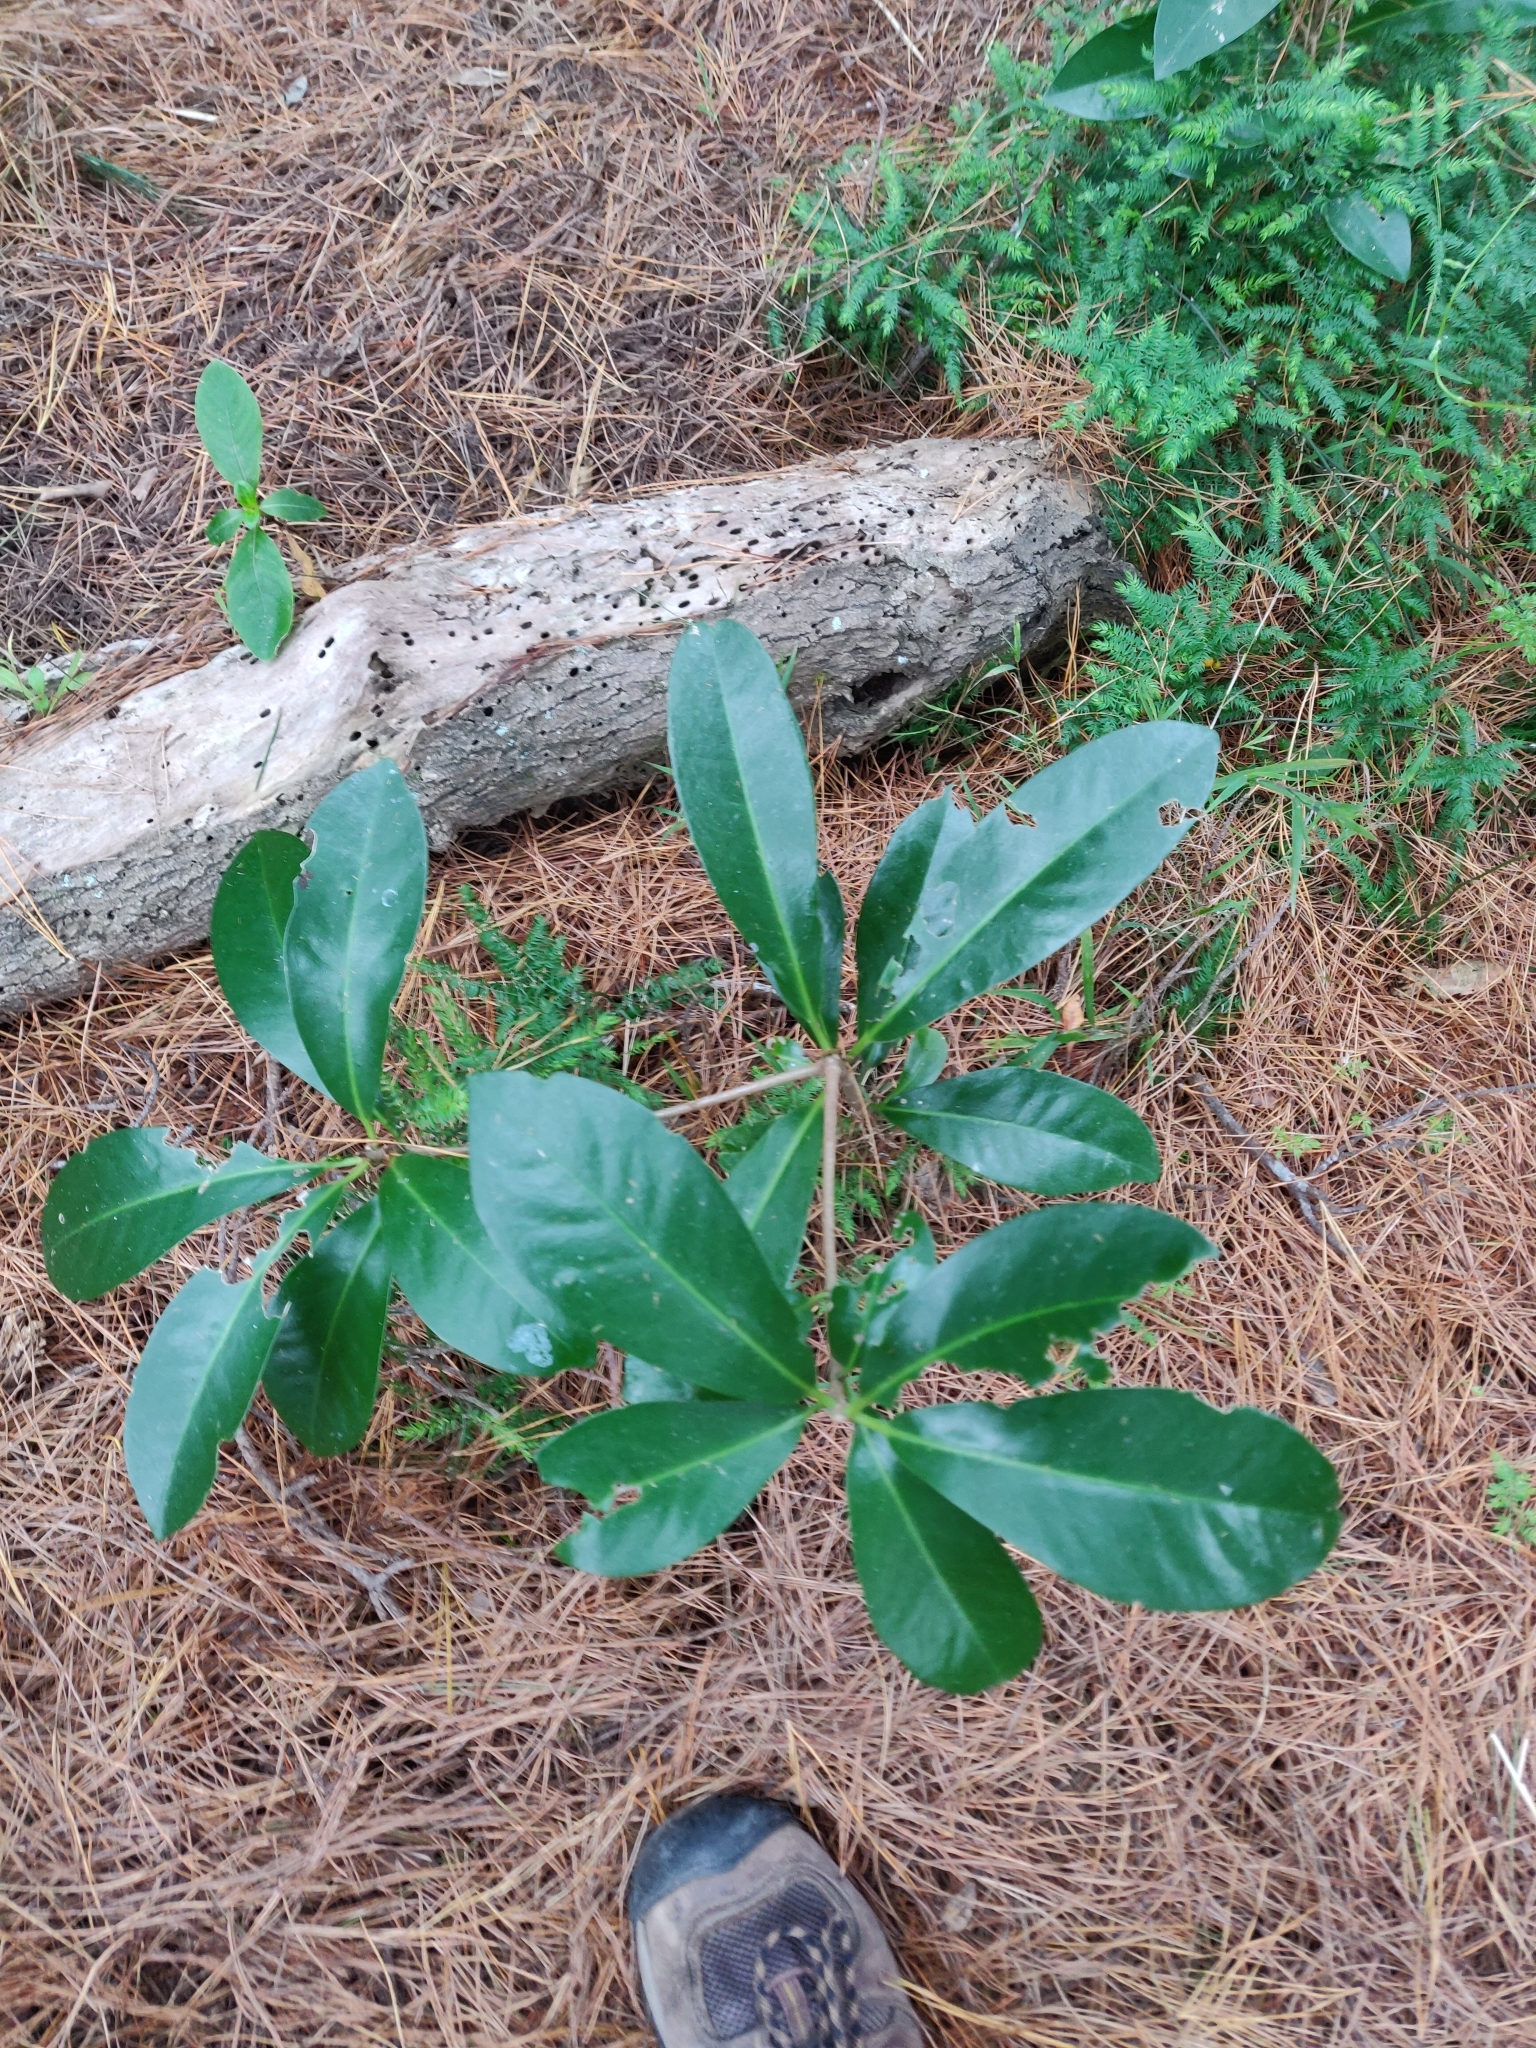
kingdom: Plantae
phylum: Tracheophyta
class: Magnoliopsida
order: Cucurbitales
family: Corynocarpaceae
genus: Corynocarpus
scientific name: Corynocarpus laevigatus
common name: New zealand laurel
